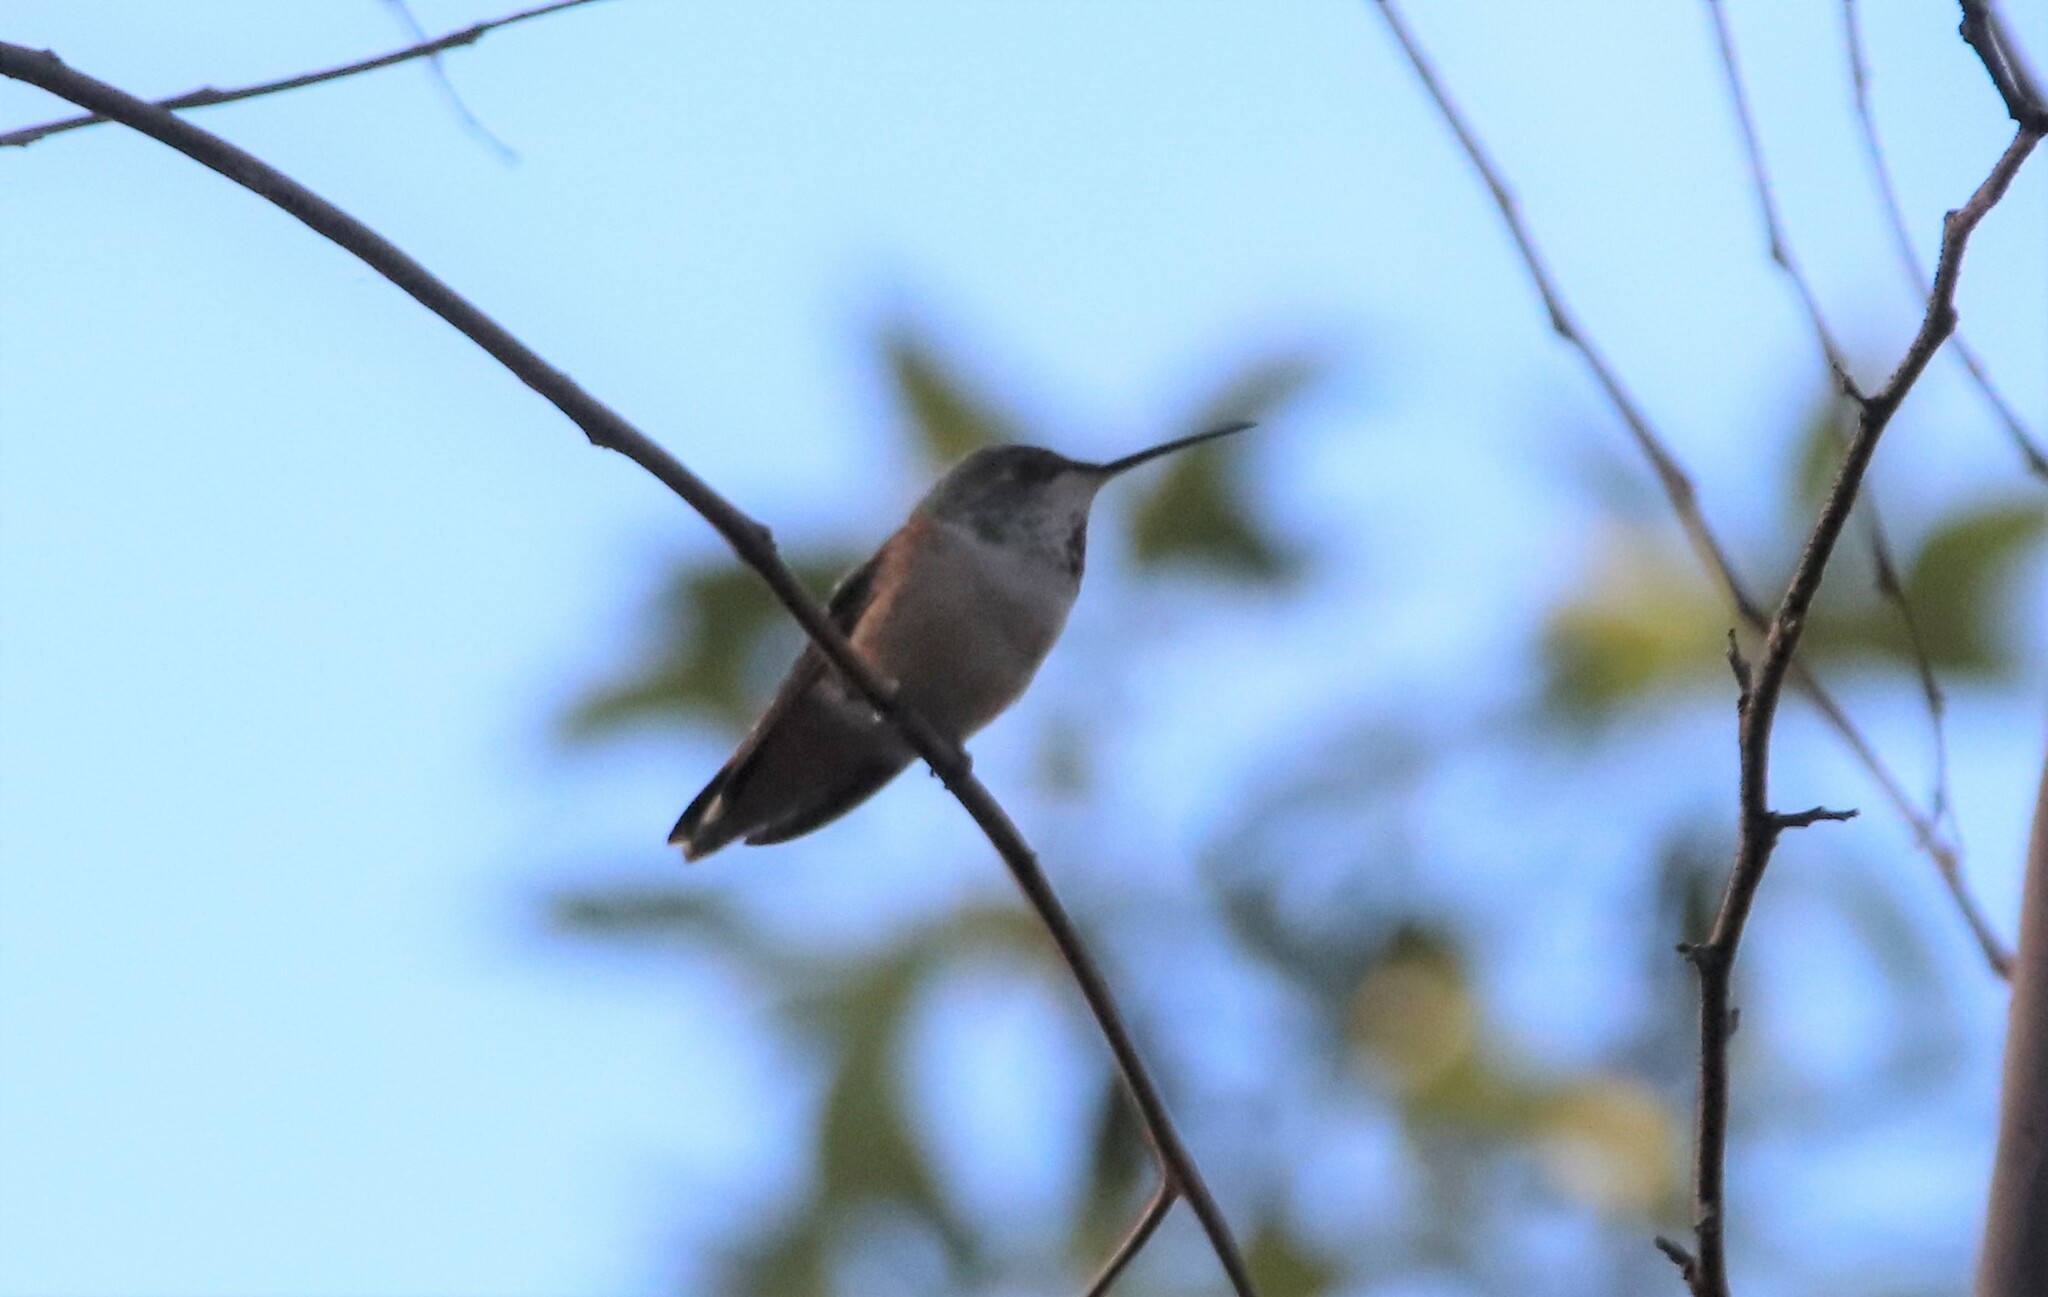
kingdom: Animalia
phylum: Chordata
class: Aves
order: Apodiformes
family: Trochilidae
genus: Selasphorus
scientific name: Selasphorus sasin
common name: Allen's hummingbird
